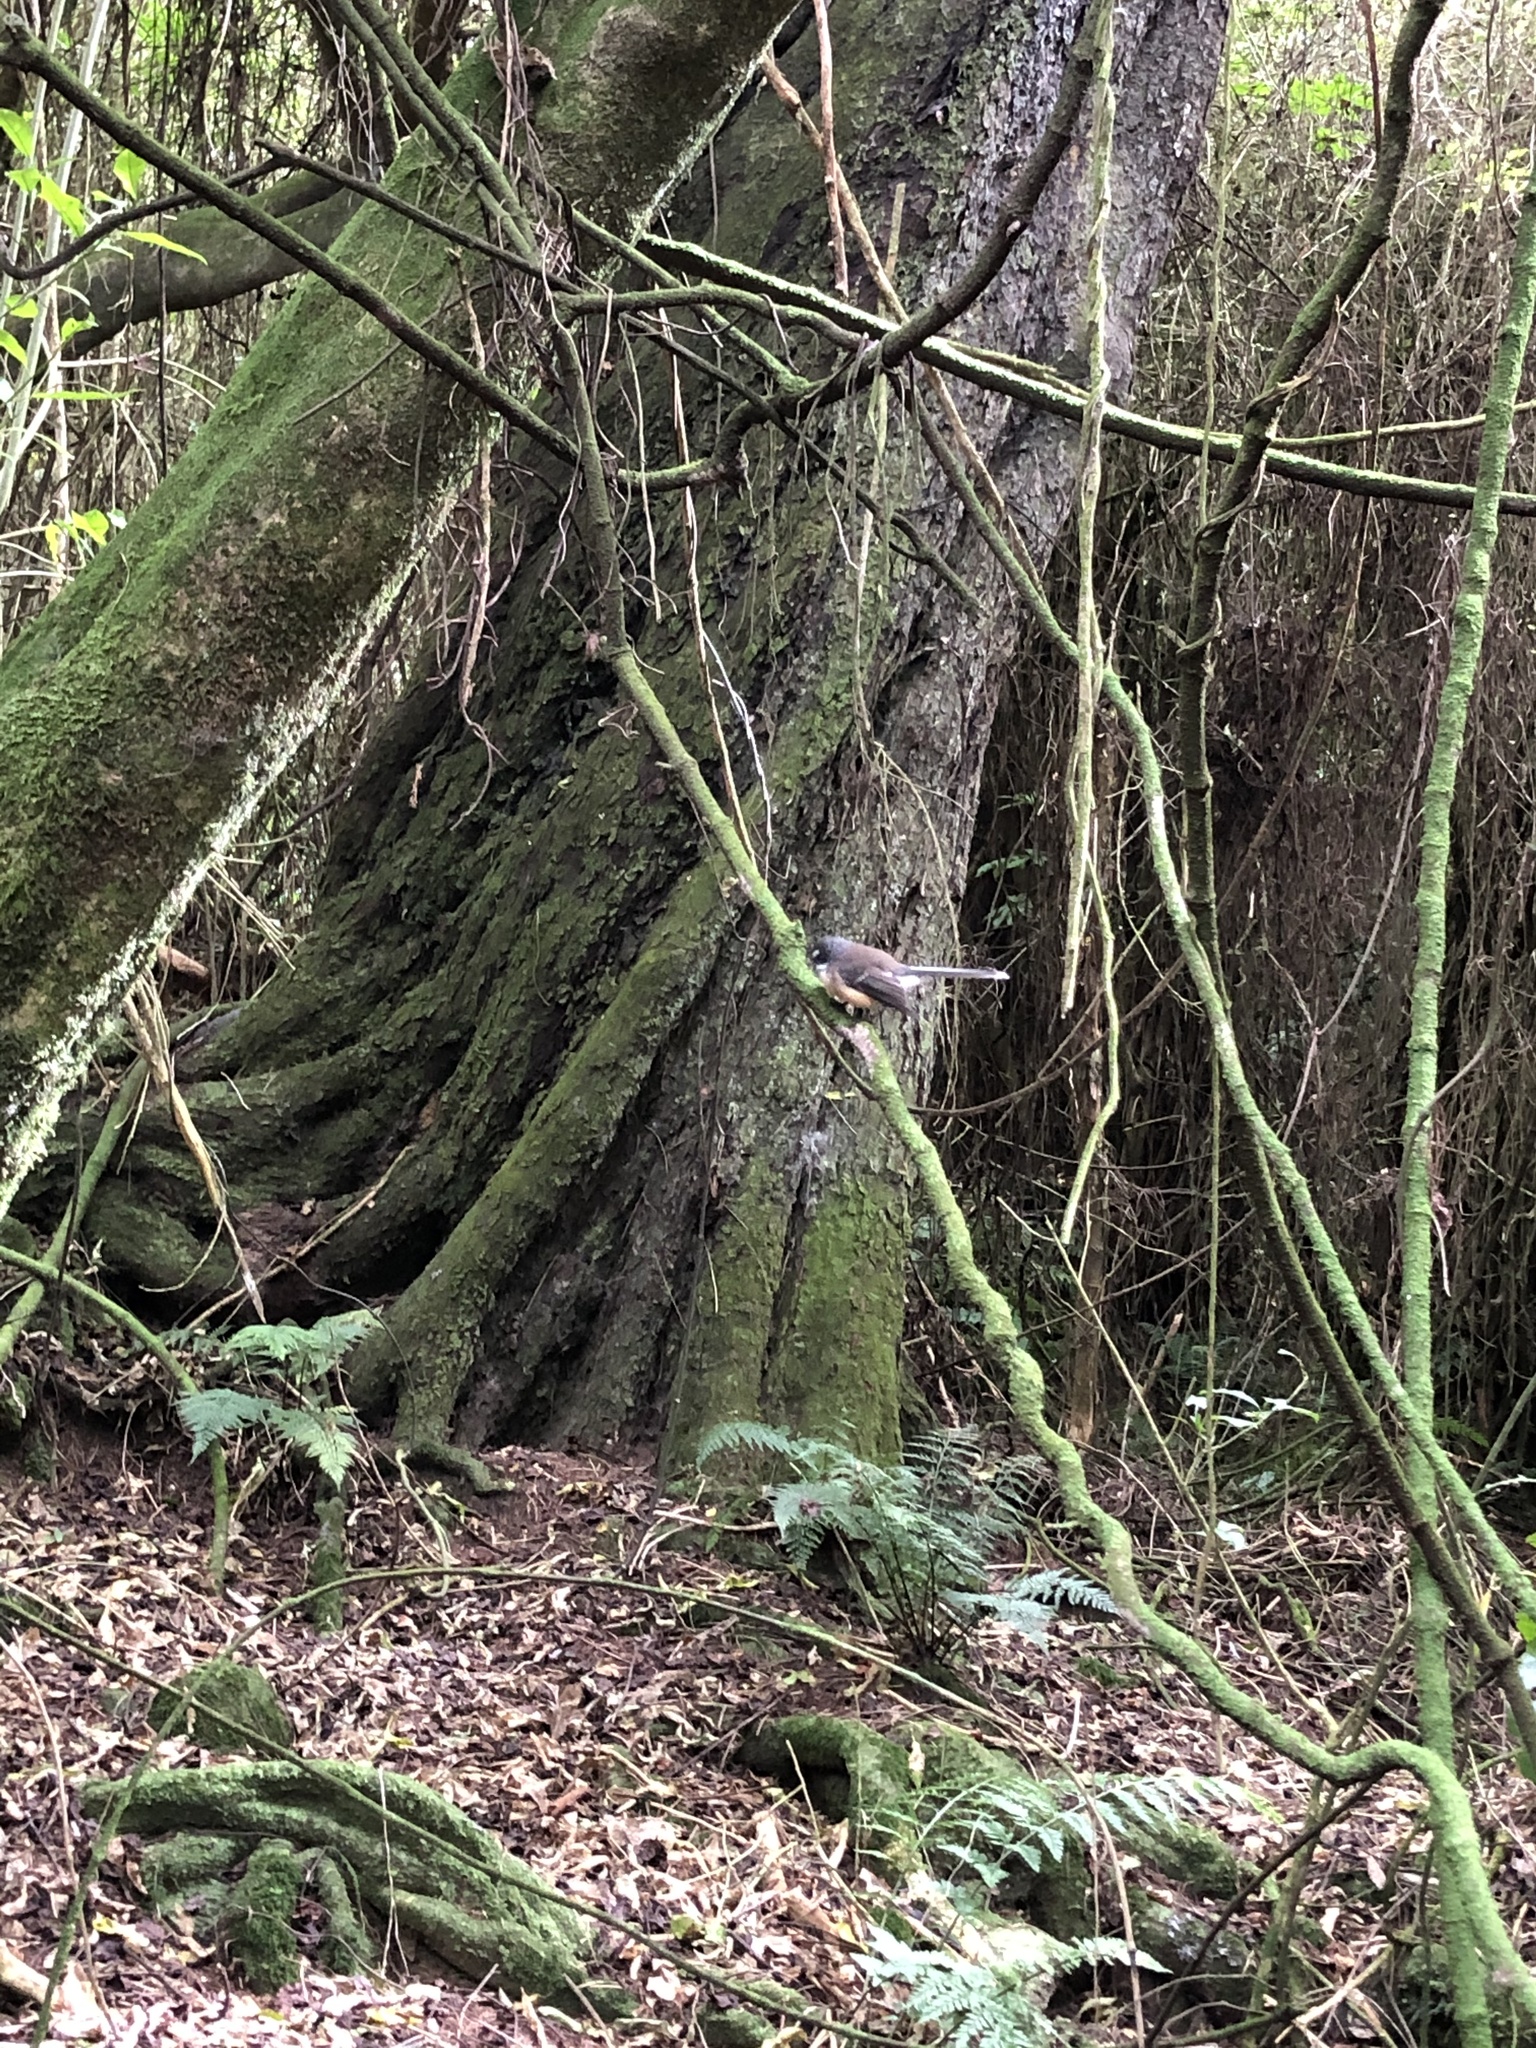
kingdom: Animalia
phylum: Chordata
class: Aves
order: Passeriformes
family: Rhipiduridae
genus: Rhipidura
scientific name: Rhipidura fuliginosa
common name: New zealand fantail
